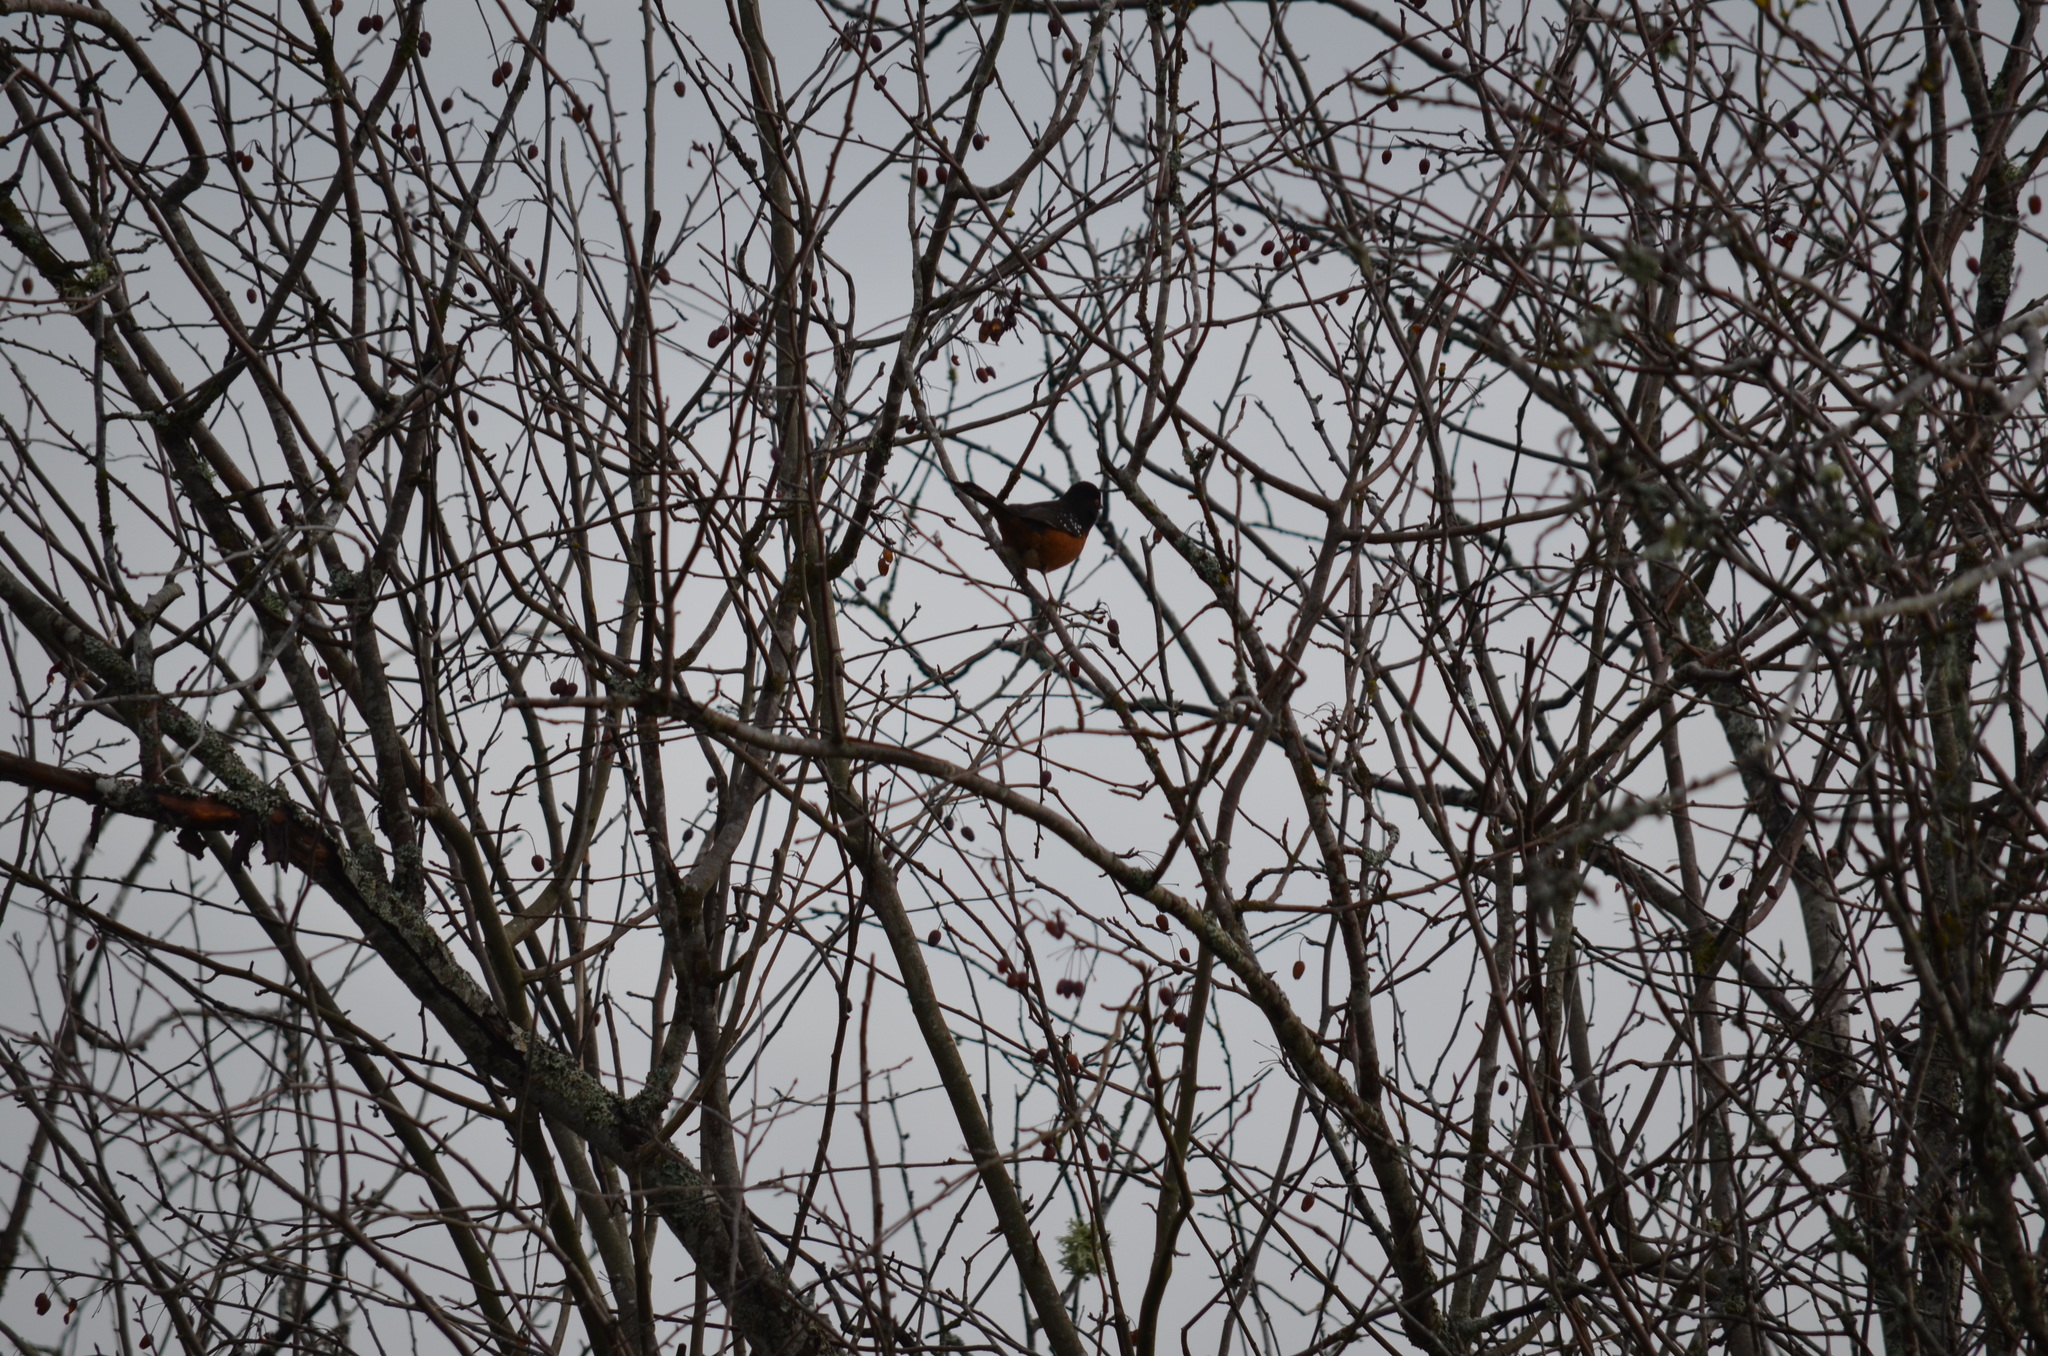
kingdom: Animalia
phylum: Chordata
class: Aves
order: Passeriformes
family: Passerellidae
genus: Pipilo
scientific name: Pipilo maculatus
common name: Spotted towhee
